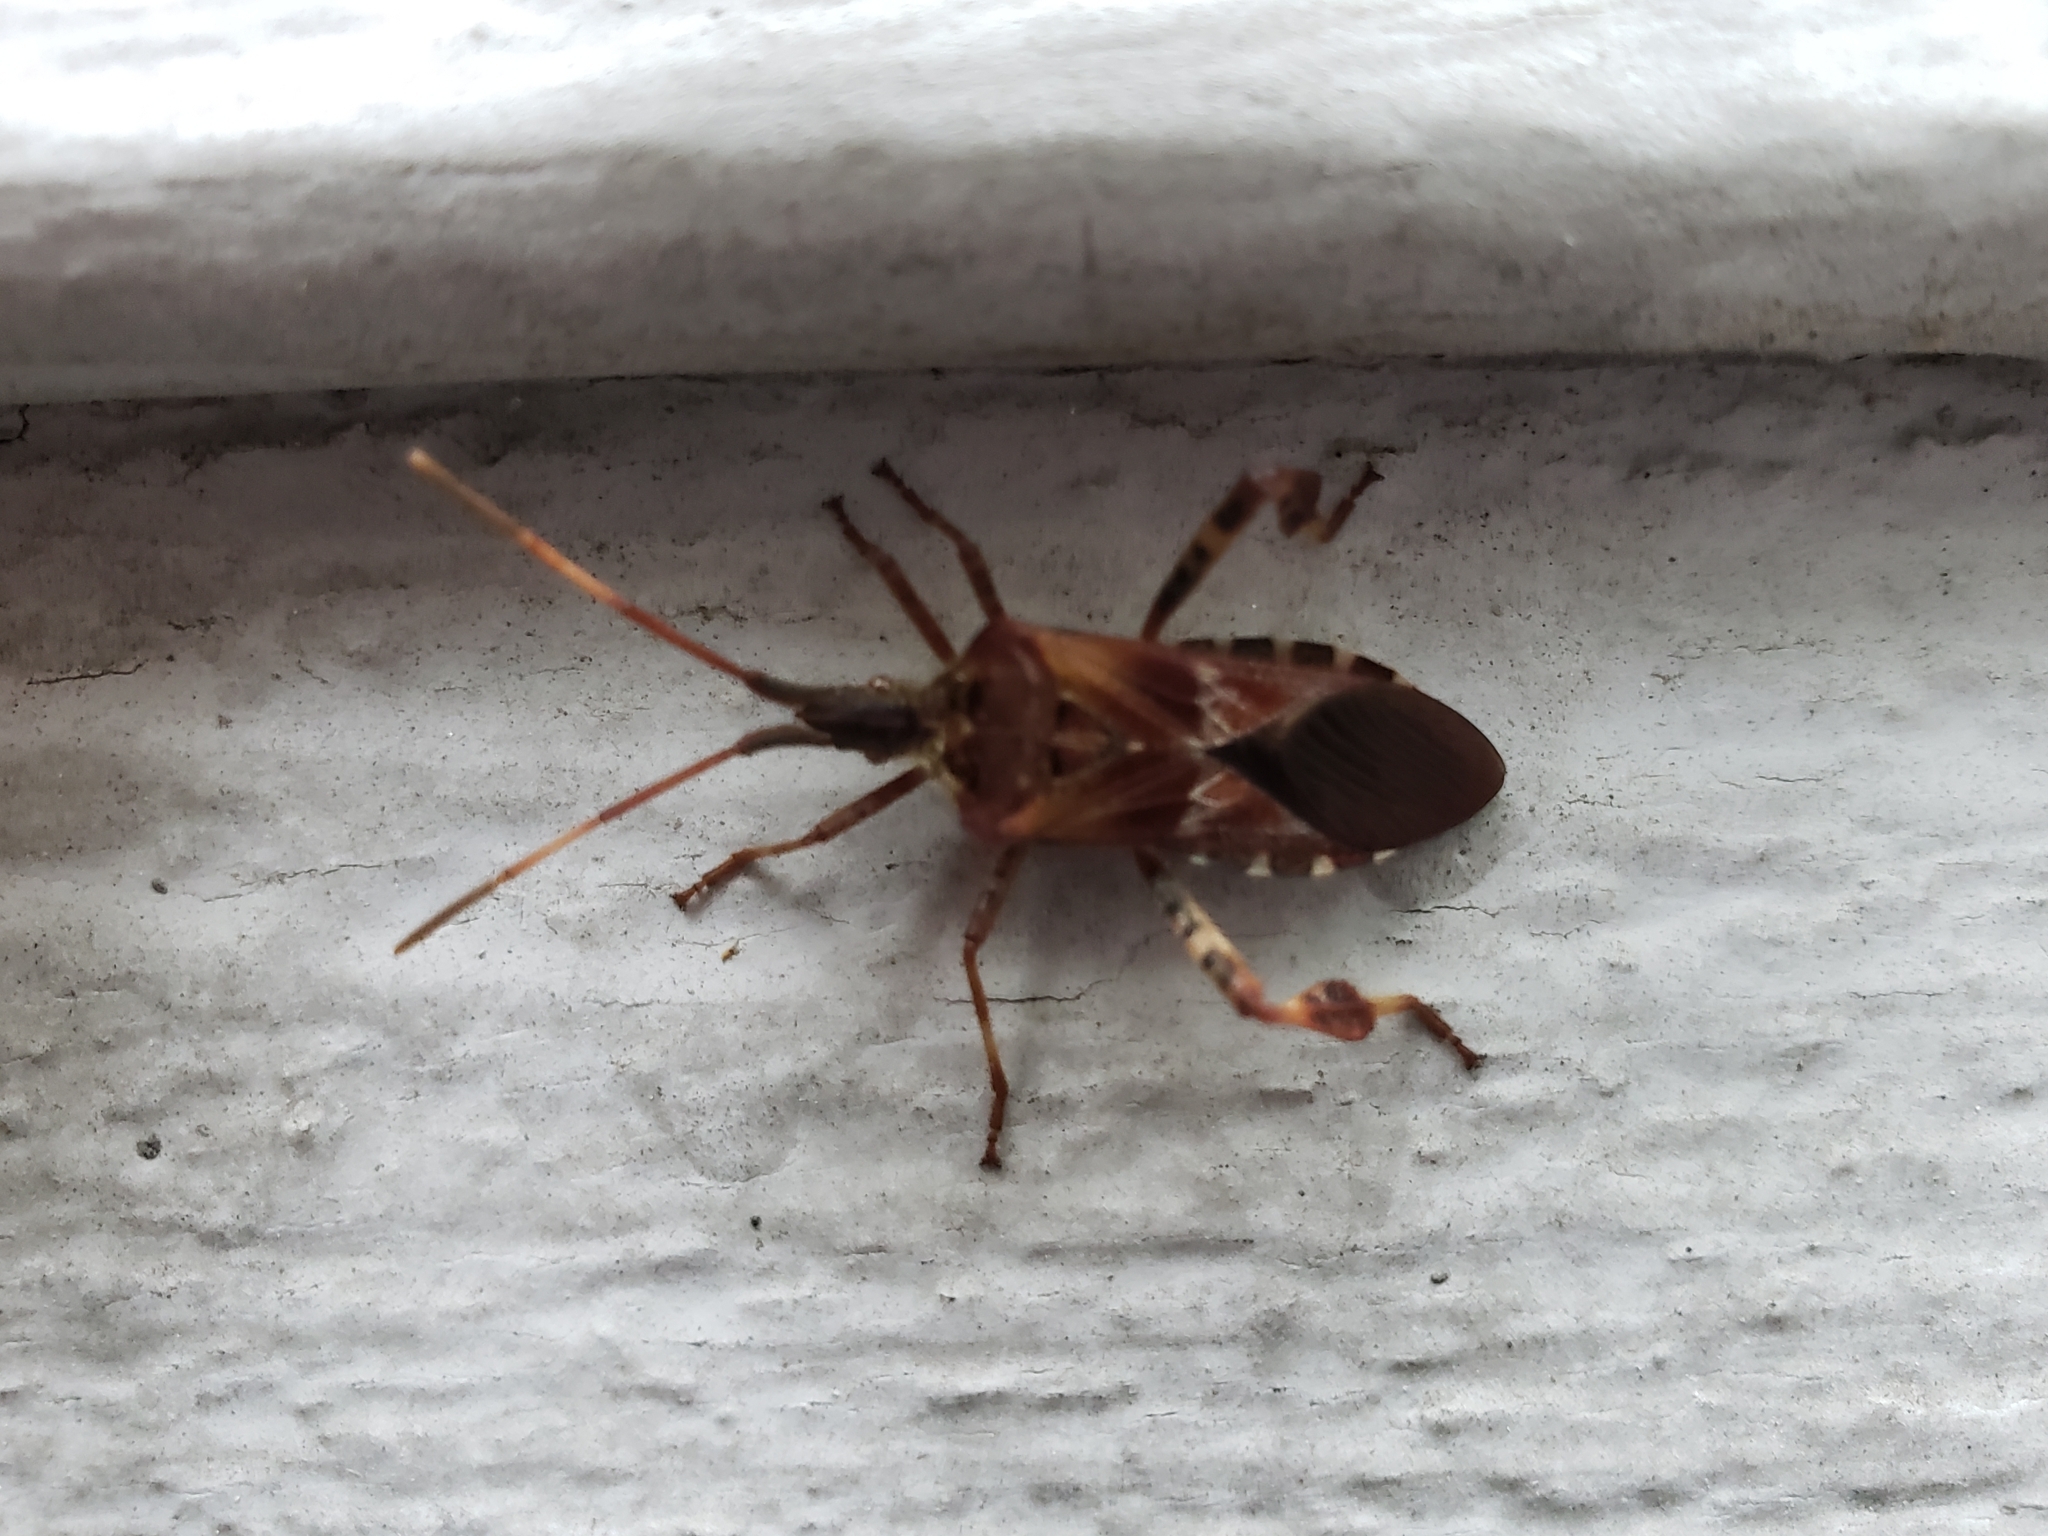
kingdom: Animalia
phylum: Arthropoda
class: Insecta
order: Hemiptera
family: Coreidae
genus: Leptoglossus
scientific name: Leptoglossus occidentalis
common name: Western conifer-seed bug
